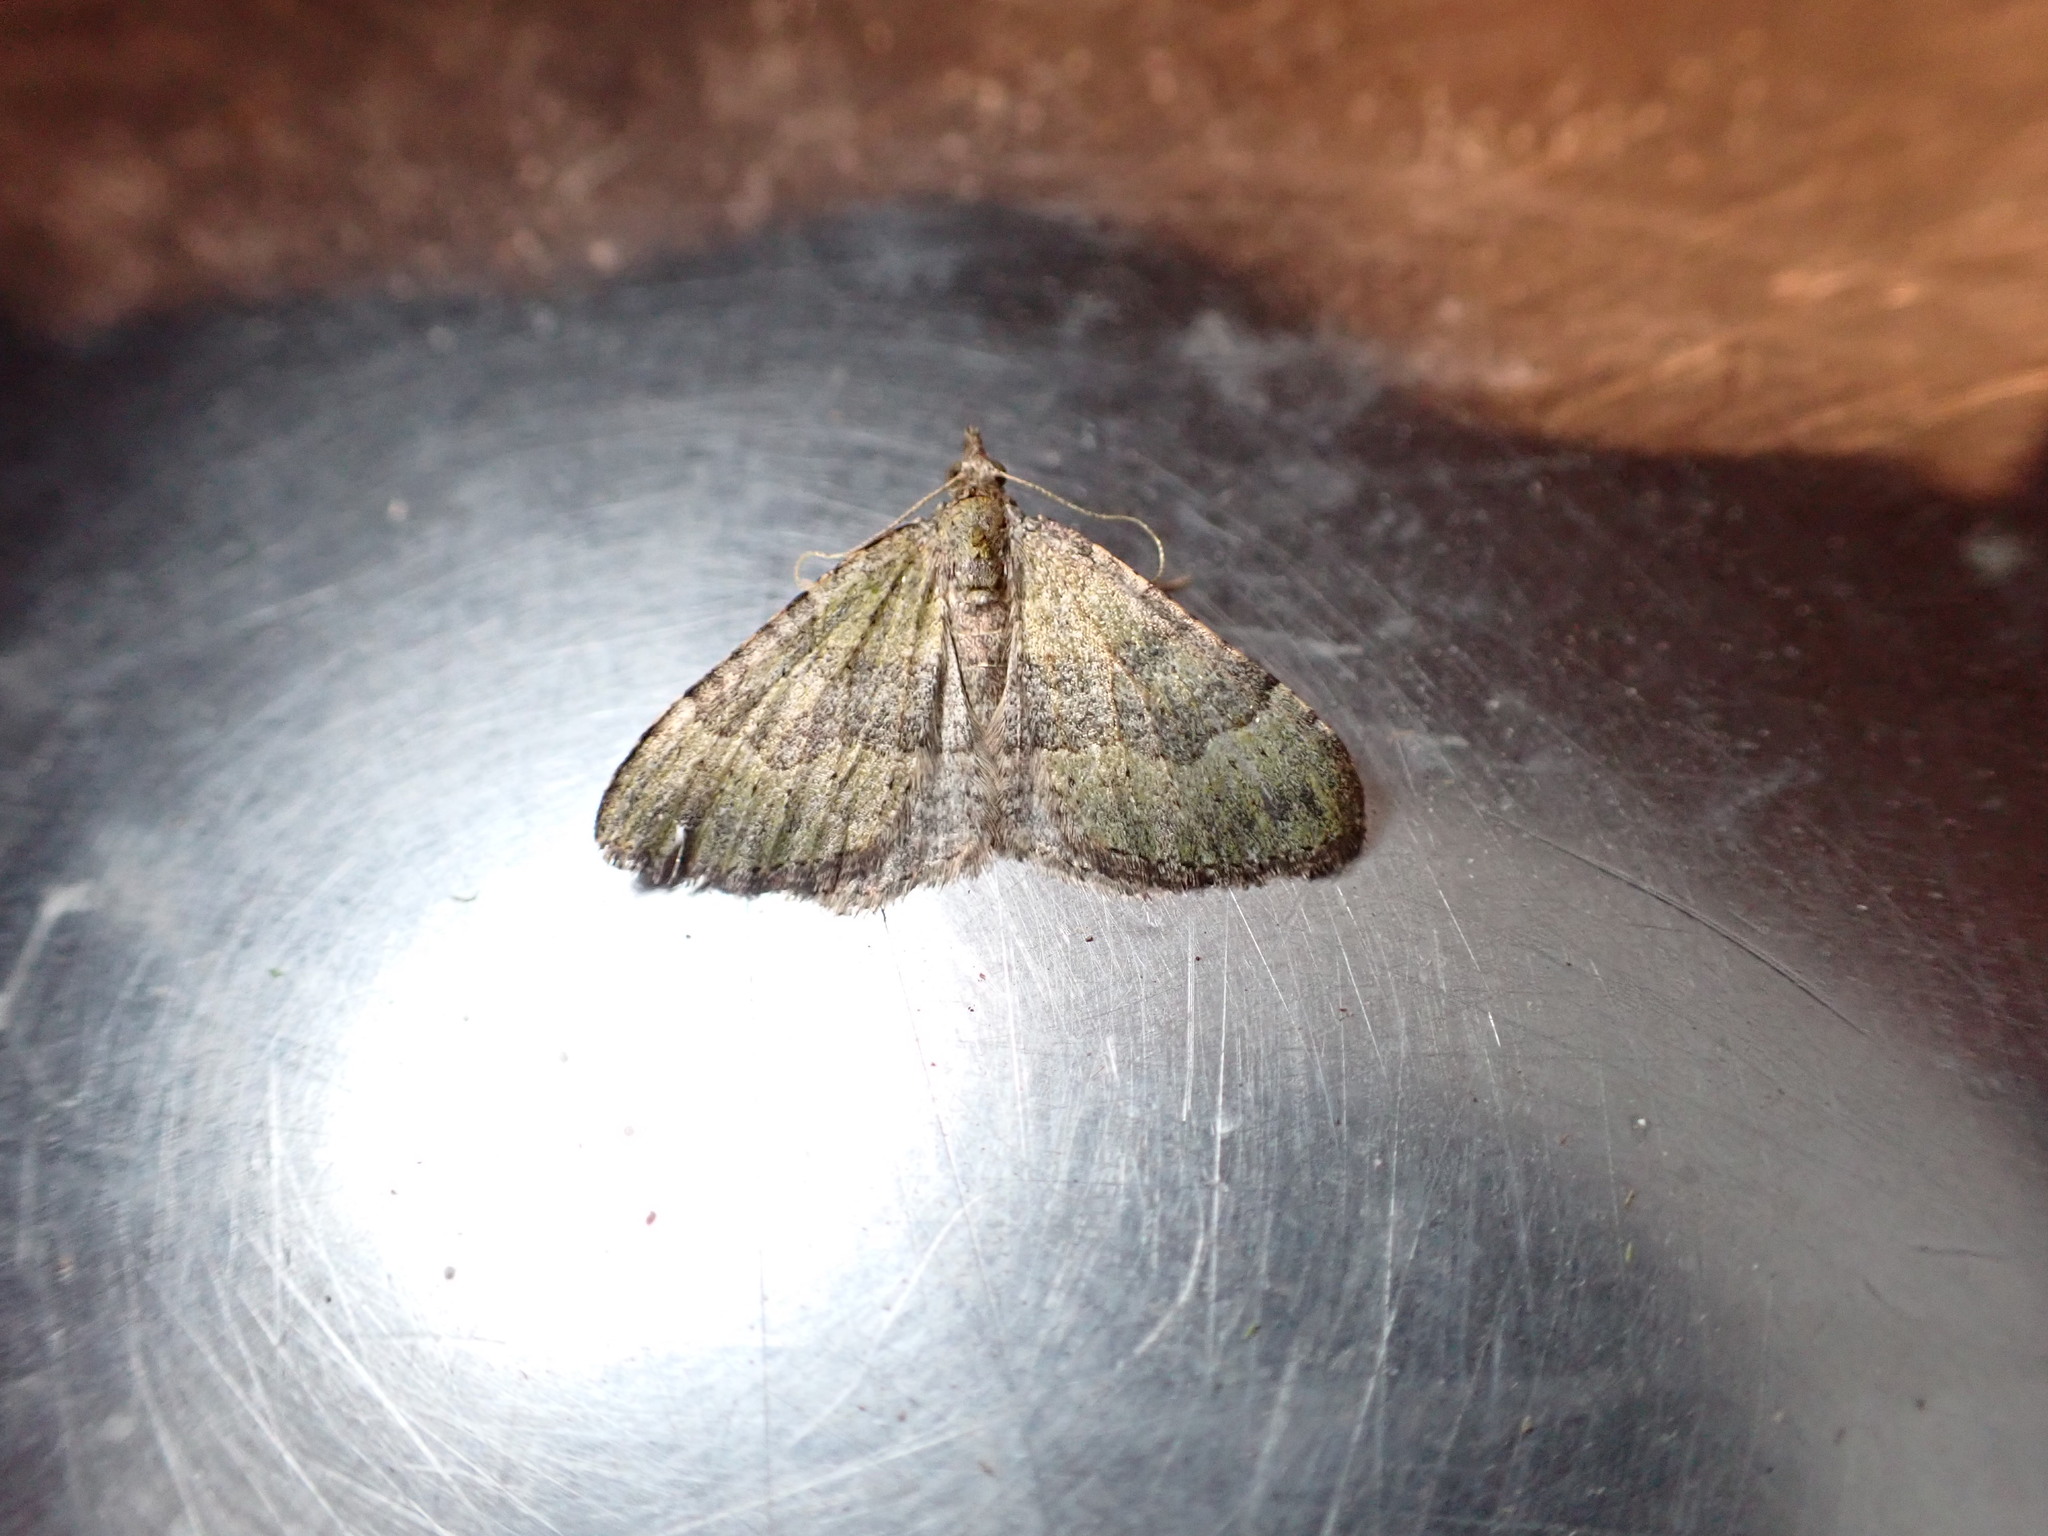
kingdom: Animalia
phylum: Arthropoda
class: Insecta
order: Lepidoptera
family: Geometridae
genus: Epyaxa
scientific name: Epyaxa rosearia
